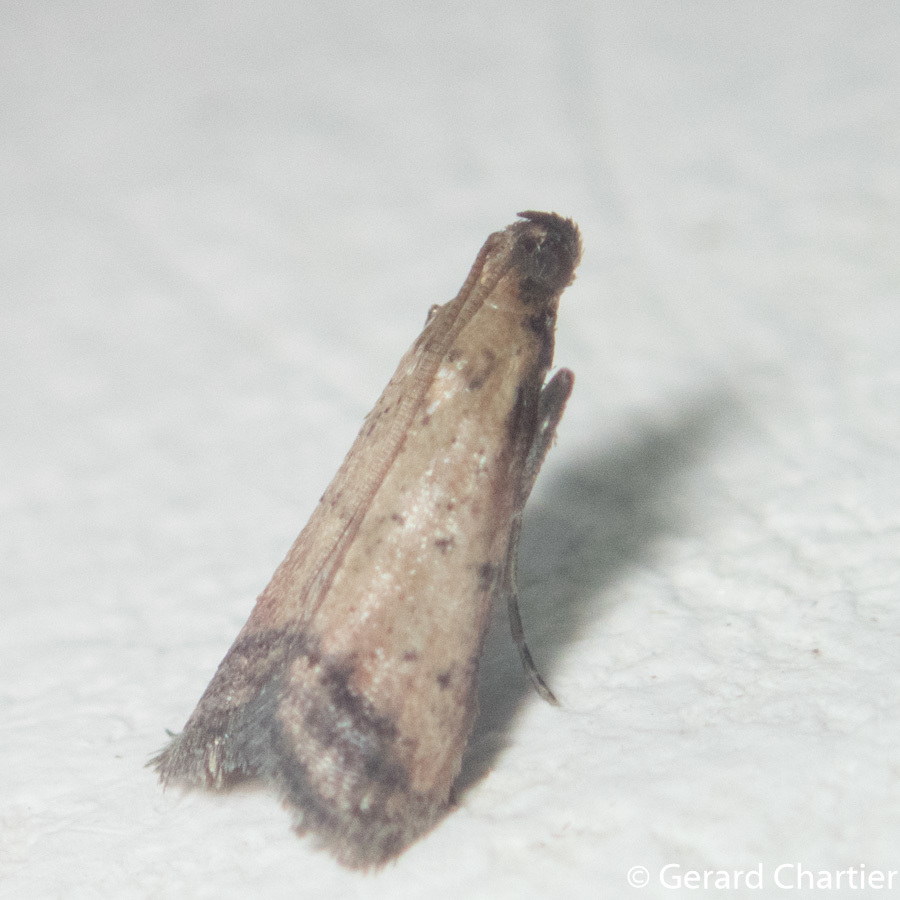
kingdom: Animalia
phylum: Arthropoda
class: Insecta
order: Lepidoptera
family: Pyralidae
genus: Quasipuer
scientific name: Quasipuer colon
